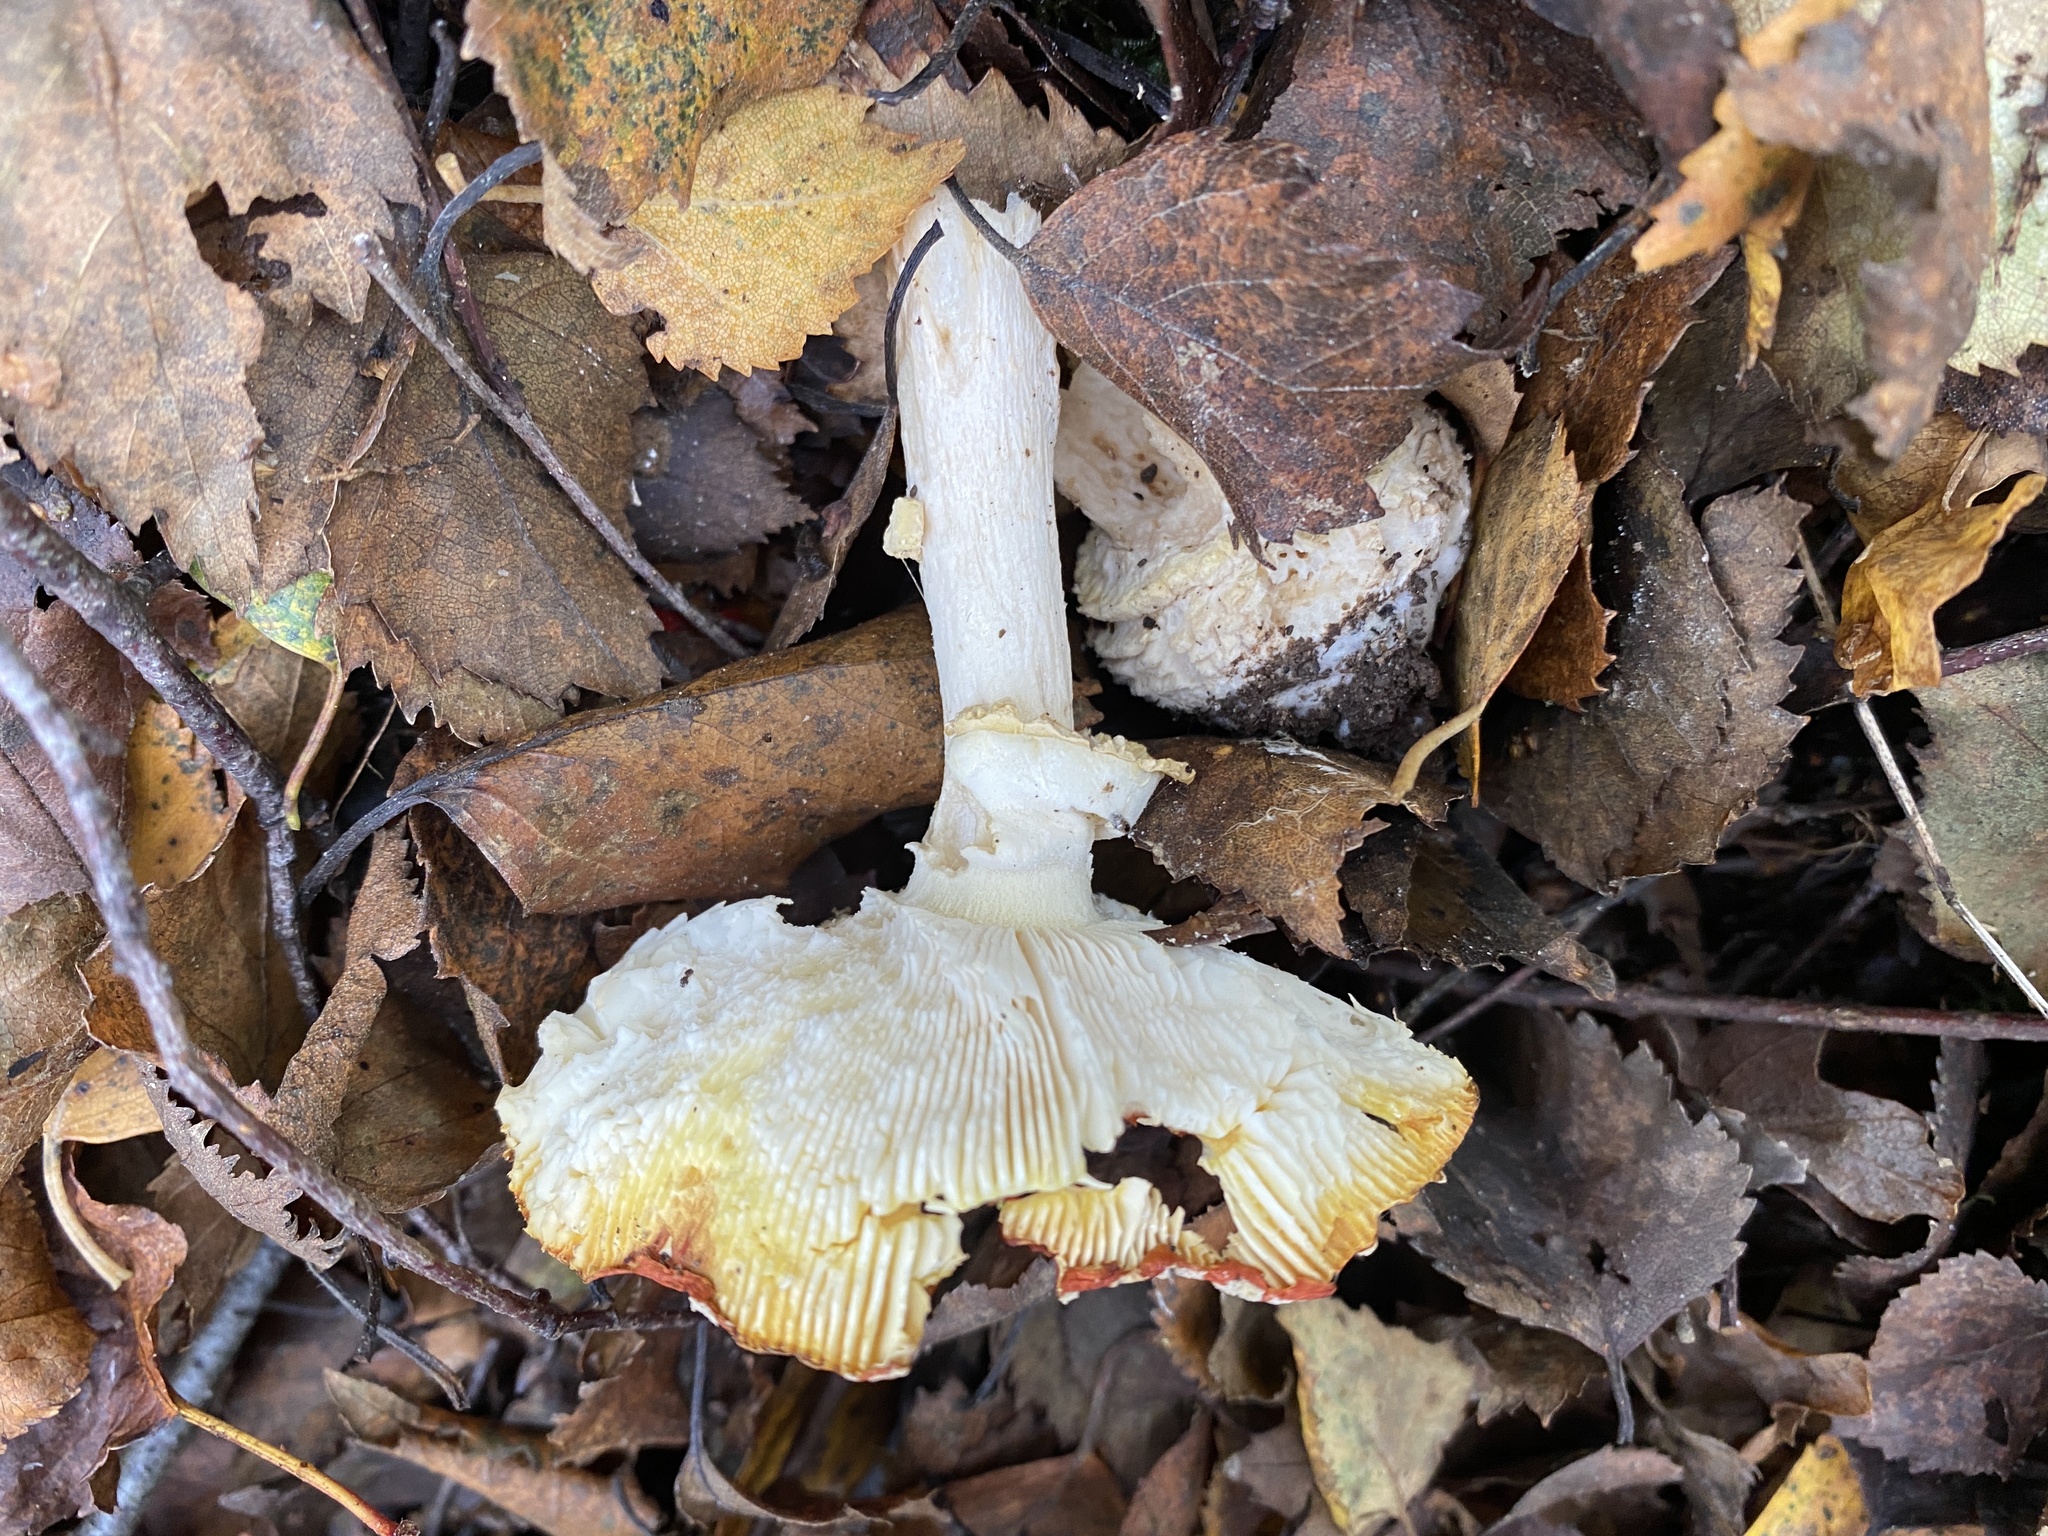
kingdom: Fungi
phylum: Basidiomycota
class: Agaricomycetes
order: Agaricales
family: Amanitaceae
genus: Amanita
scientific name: Amanita muscaria
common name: Fly agaric
